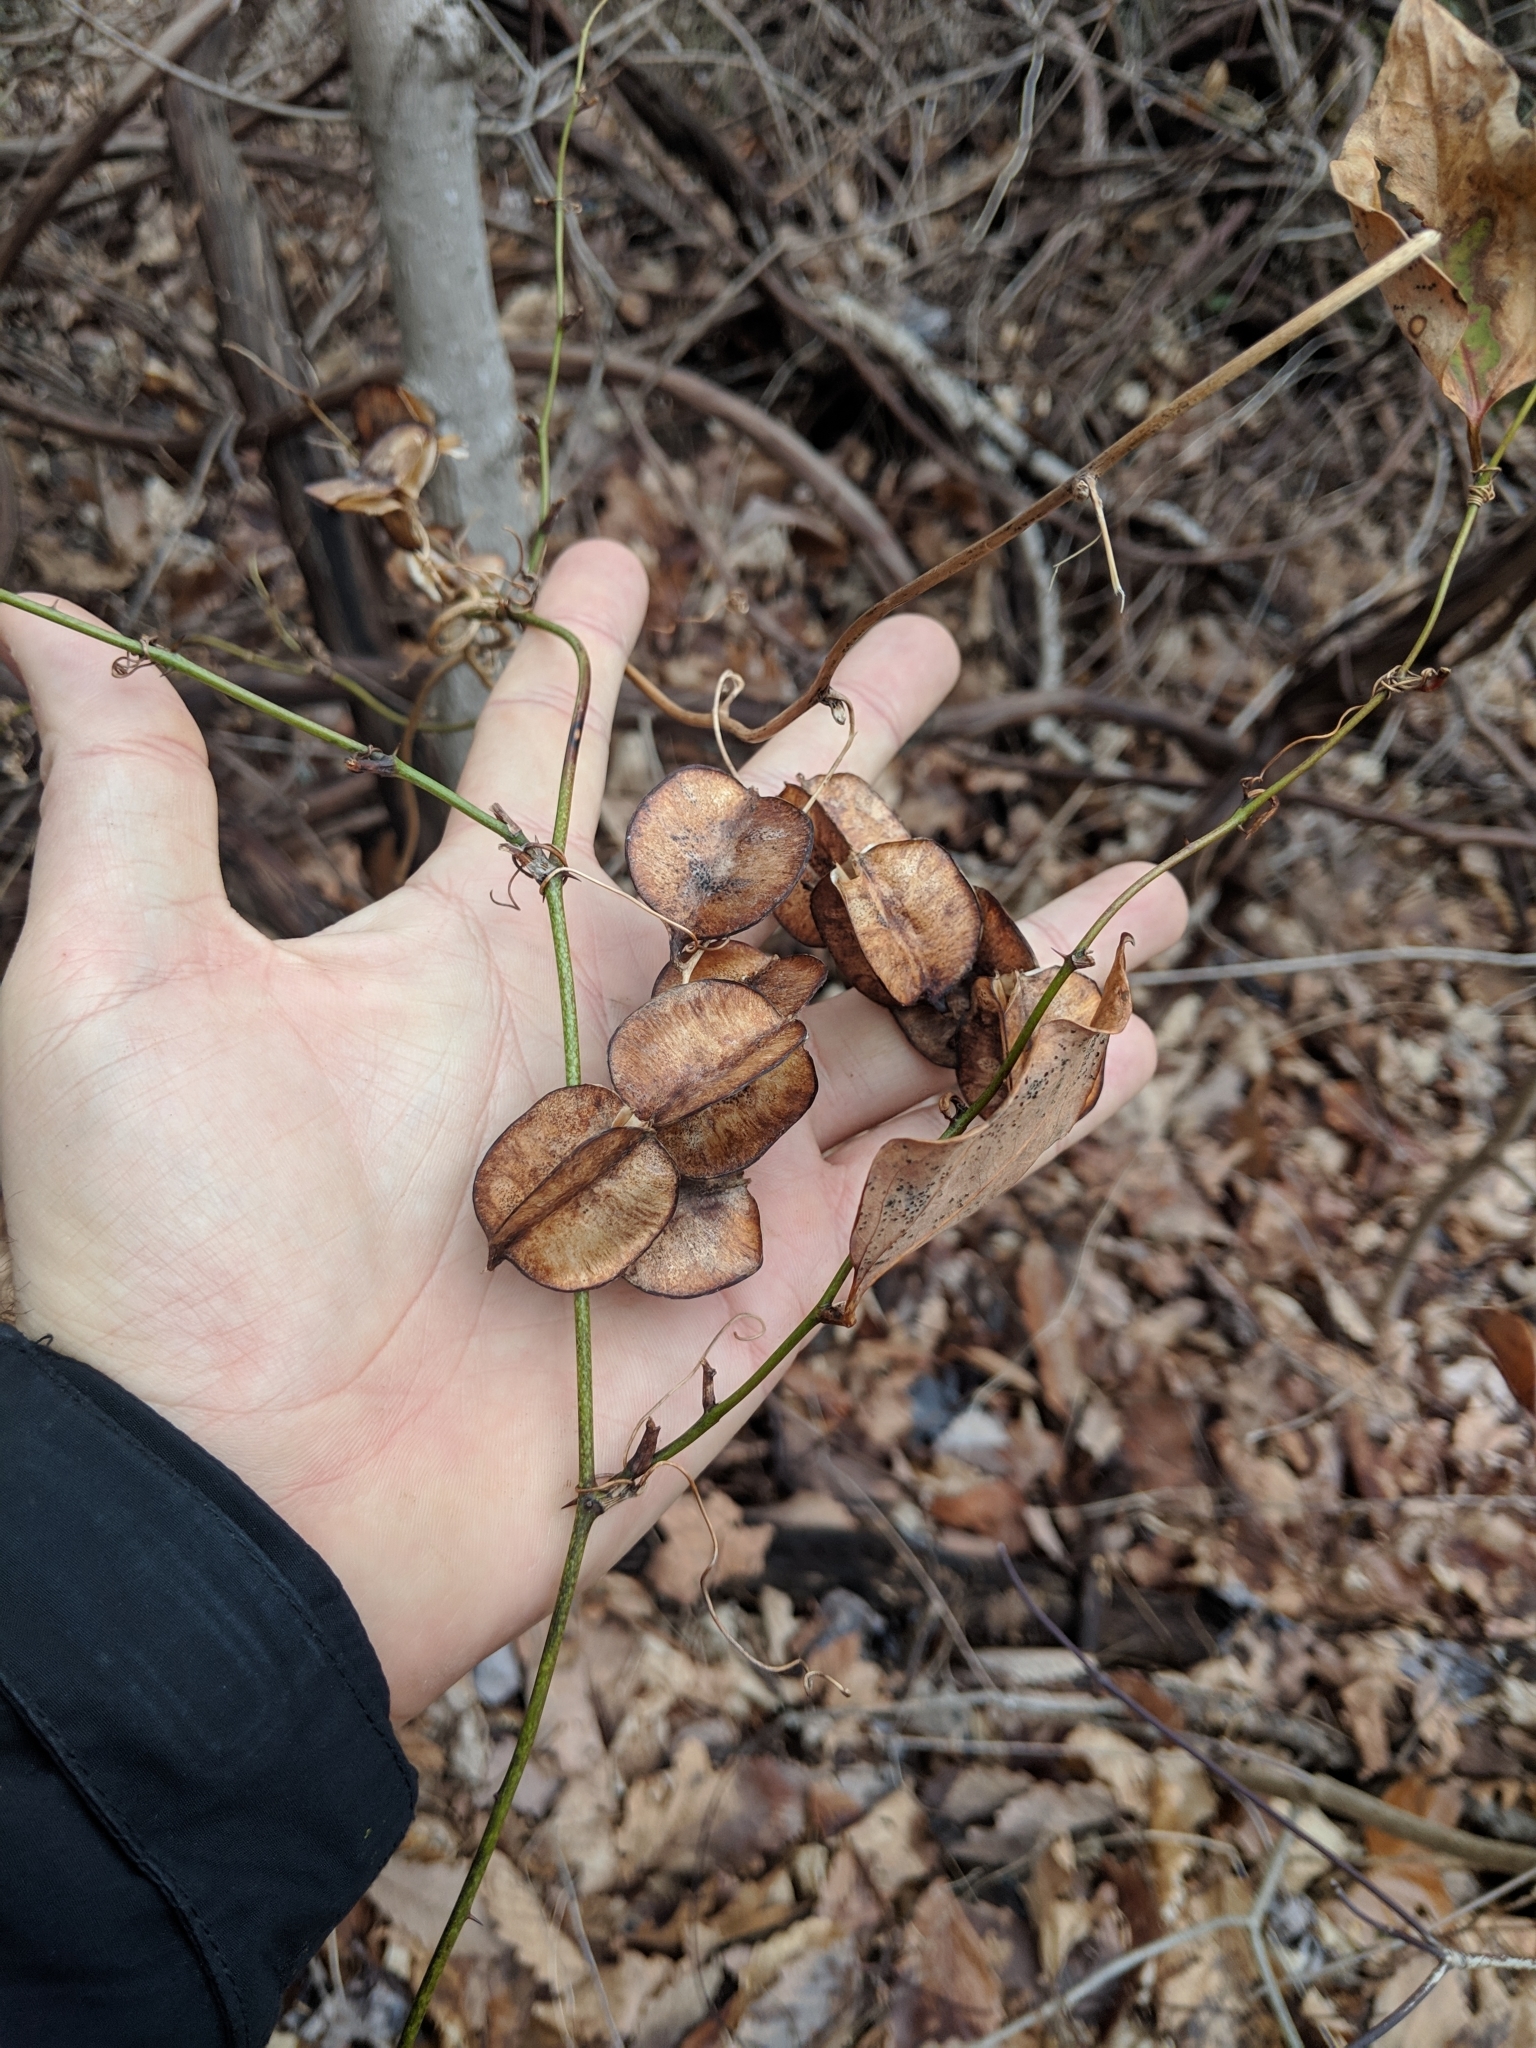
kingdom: Plantae
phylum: Tracheophyta
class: Liliopsida
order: Dioscoreales
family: Dioscoreaceae
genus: Dioscorea
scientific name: Dioscorea villosa
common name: Wild yam
